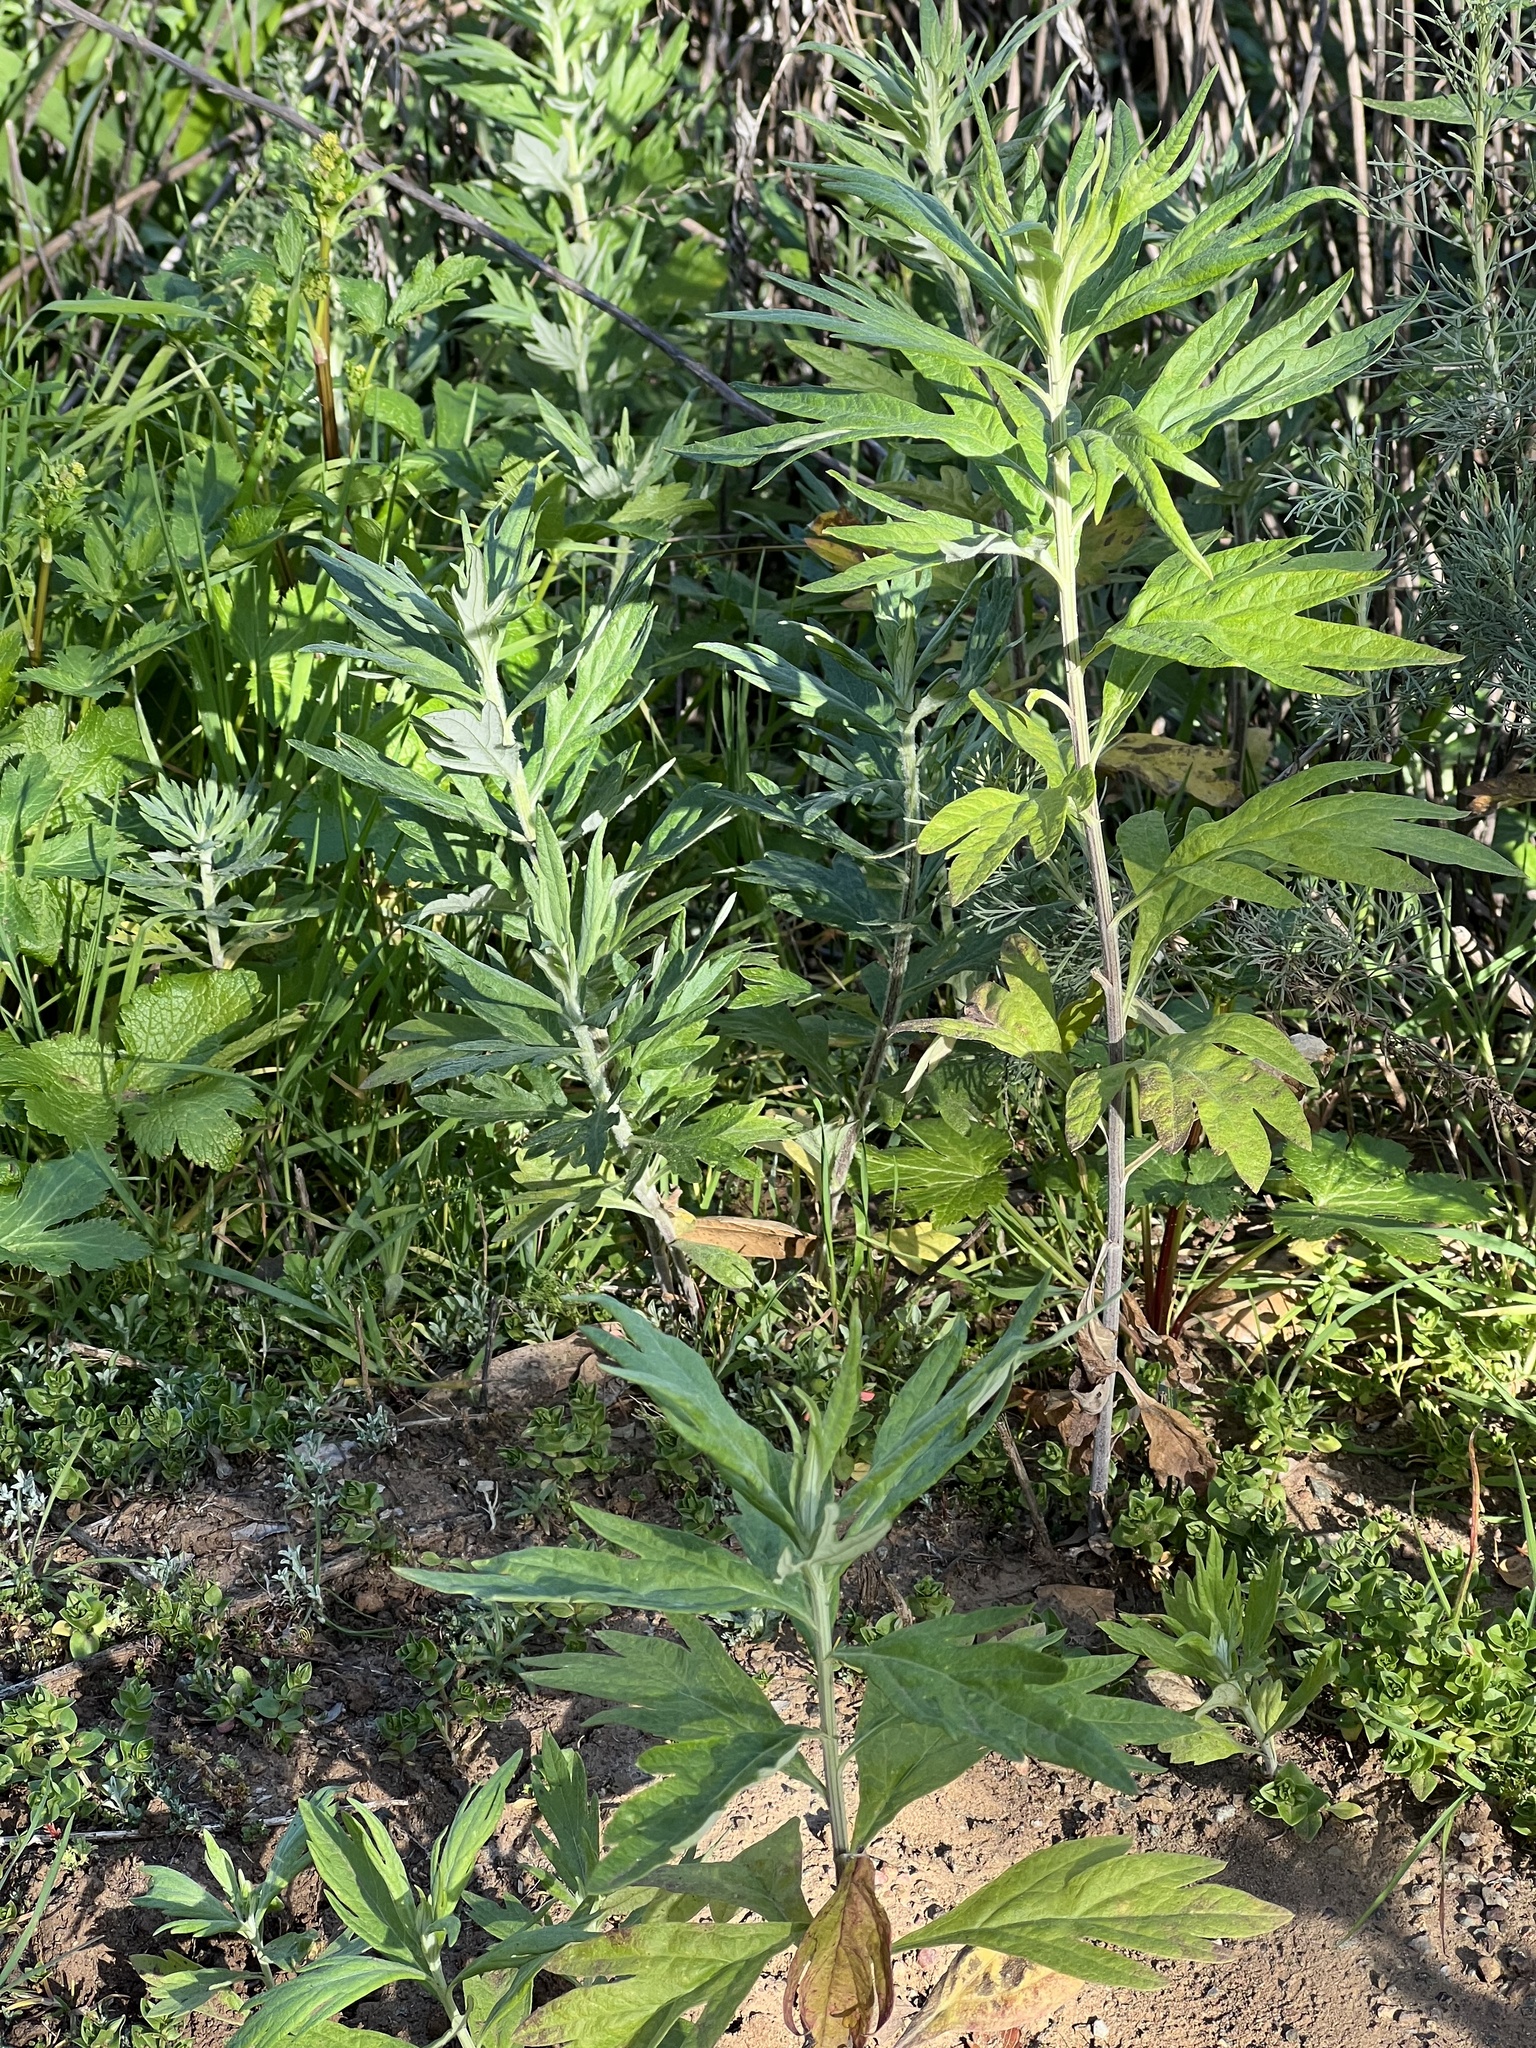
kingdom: Plantae
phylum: Tracheophyta
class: Magnoliopsida
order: Asterales
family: Asteraceae
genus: Artemisia
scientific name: Artemisia douglasiana
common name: Northwest mugwort
